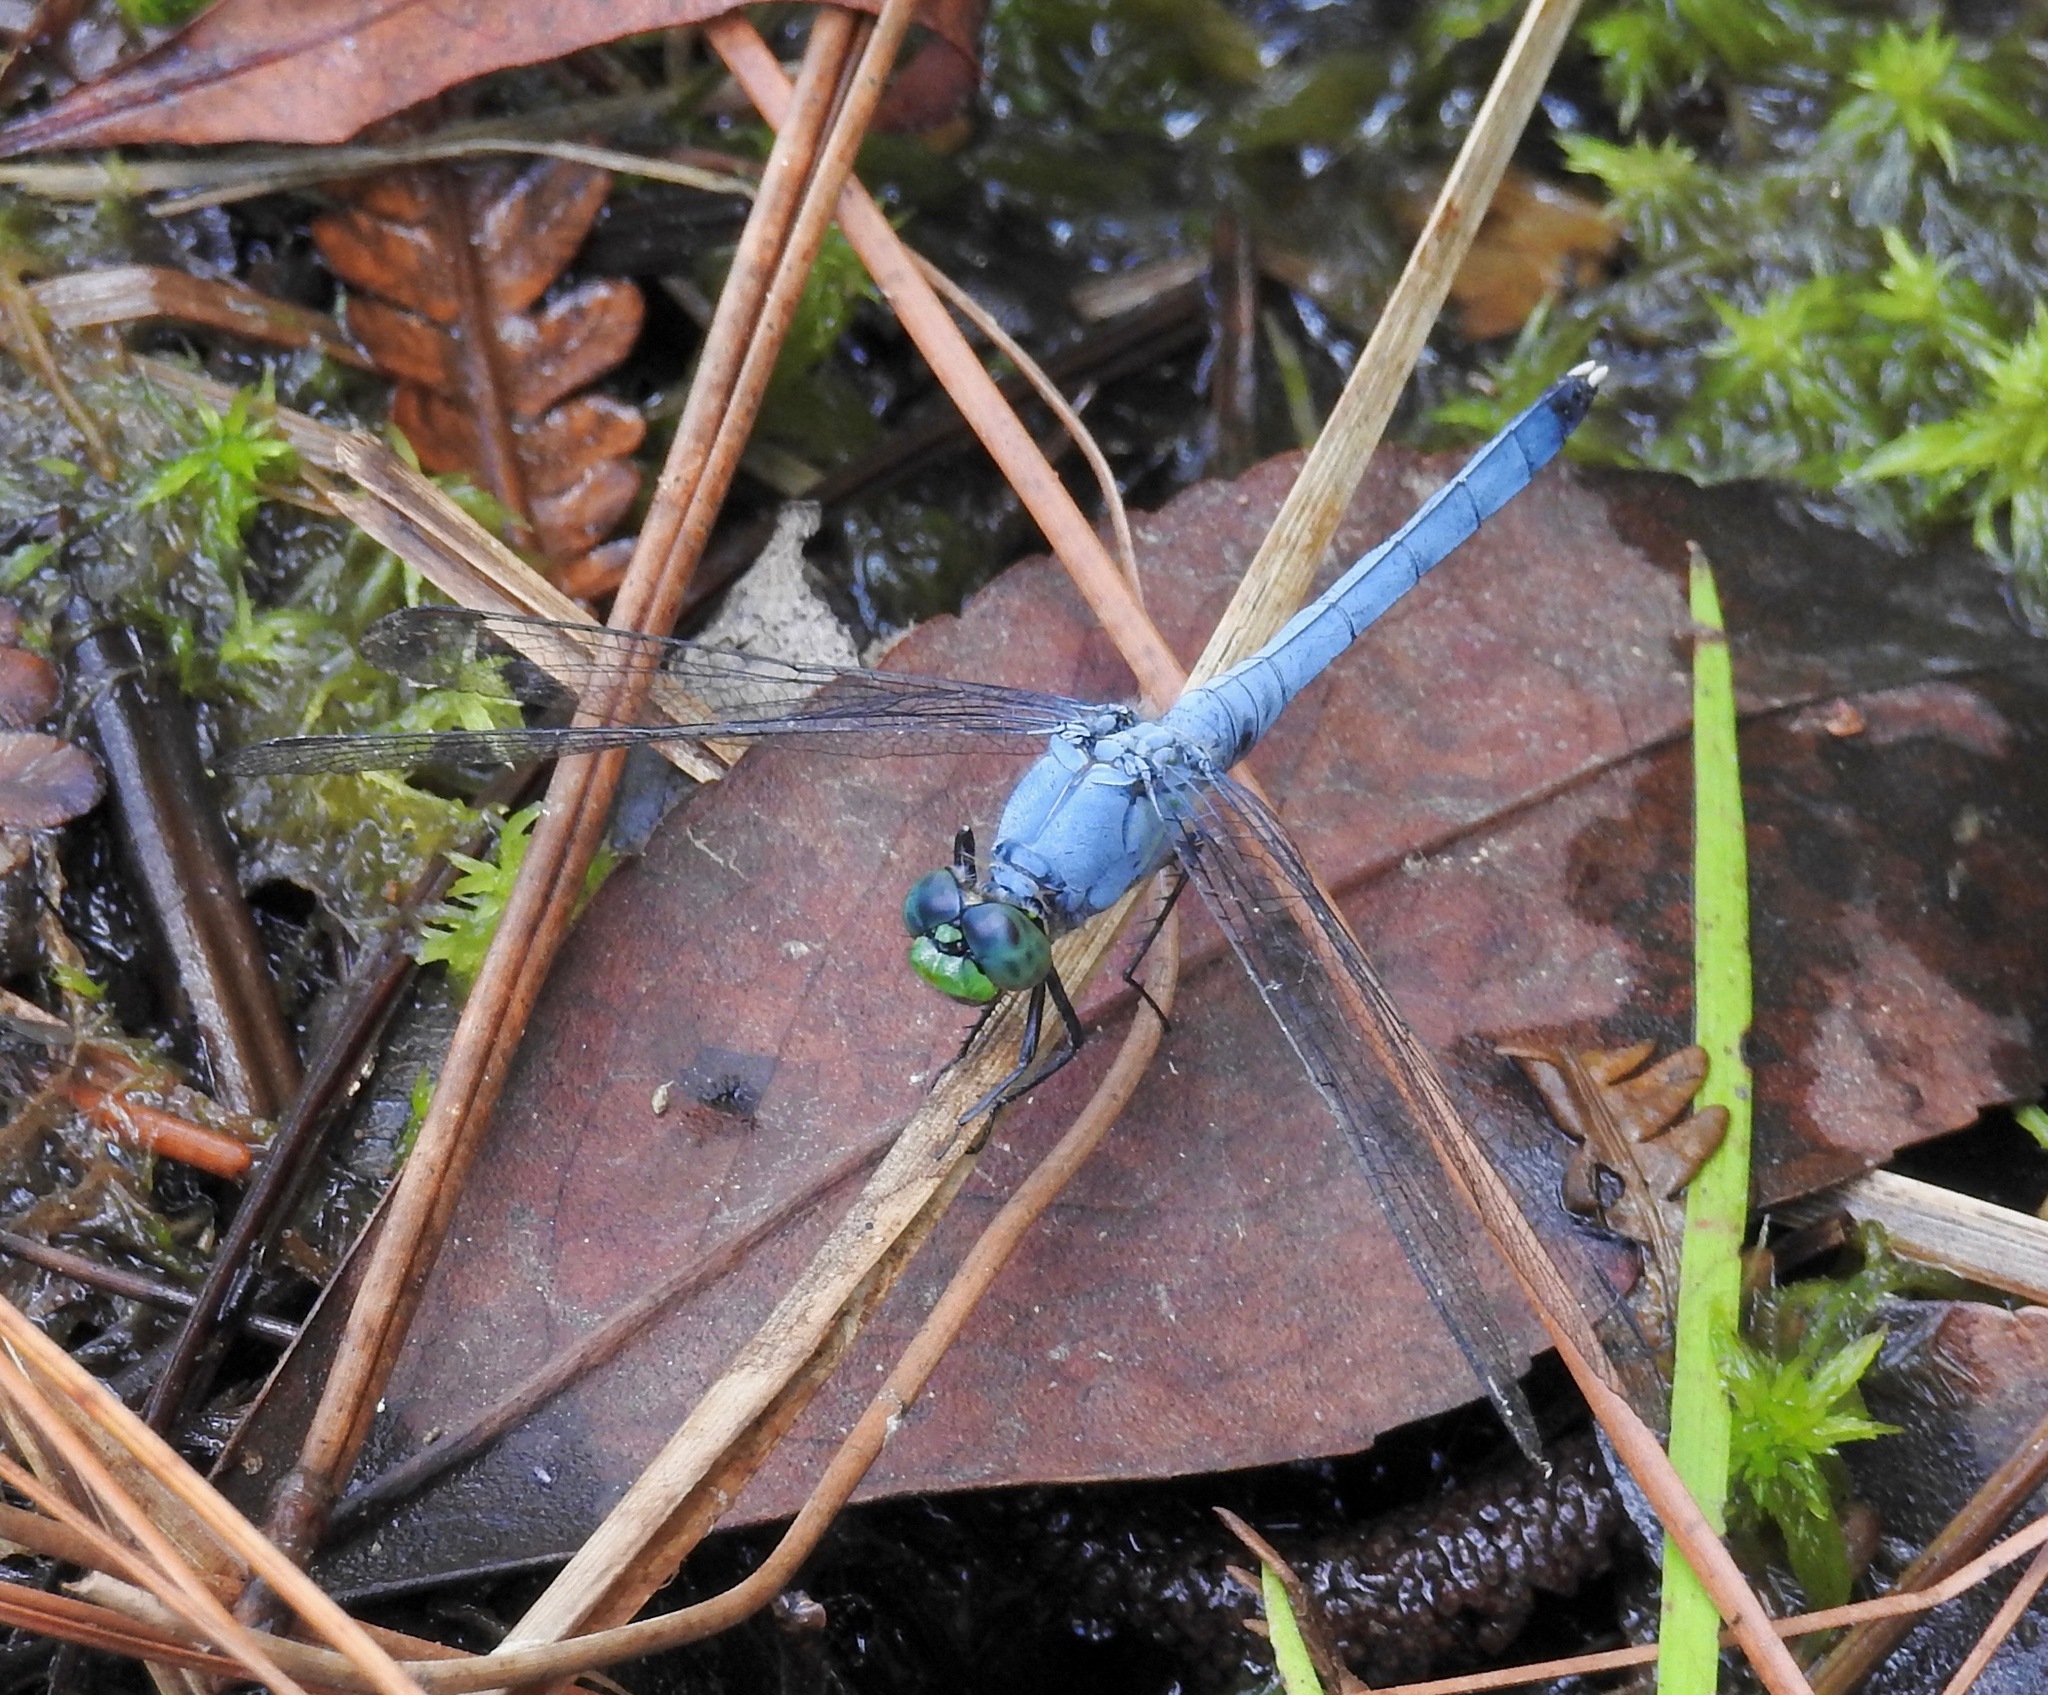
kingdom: Animalia
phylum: Arthropoda
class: Insecta
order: Odonata
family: Libellulidae
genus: Erythemis
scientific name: Erythemis simplicicollis
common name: Eastern pondhawk
